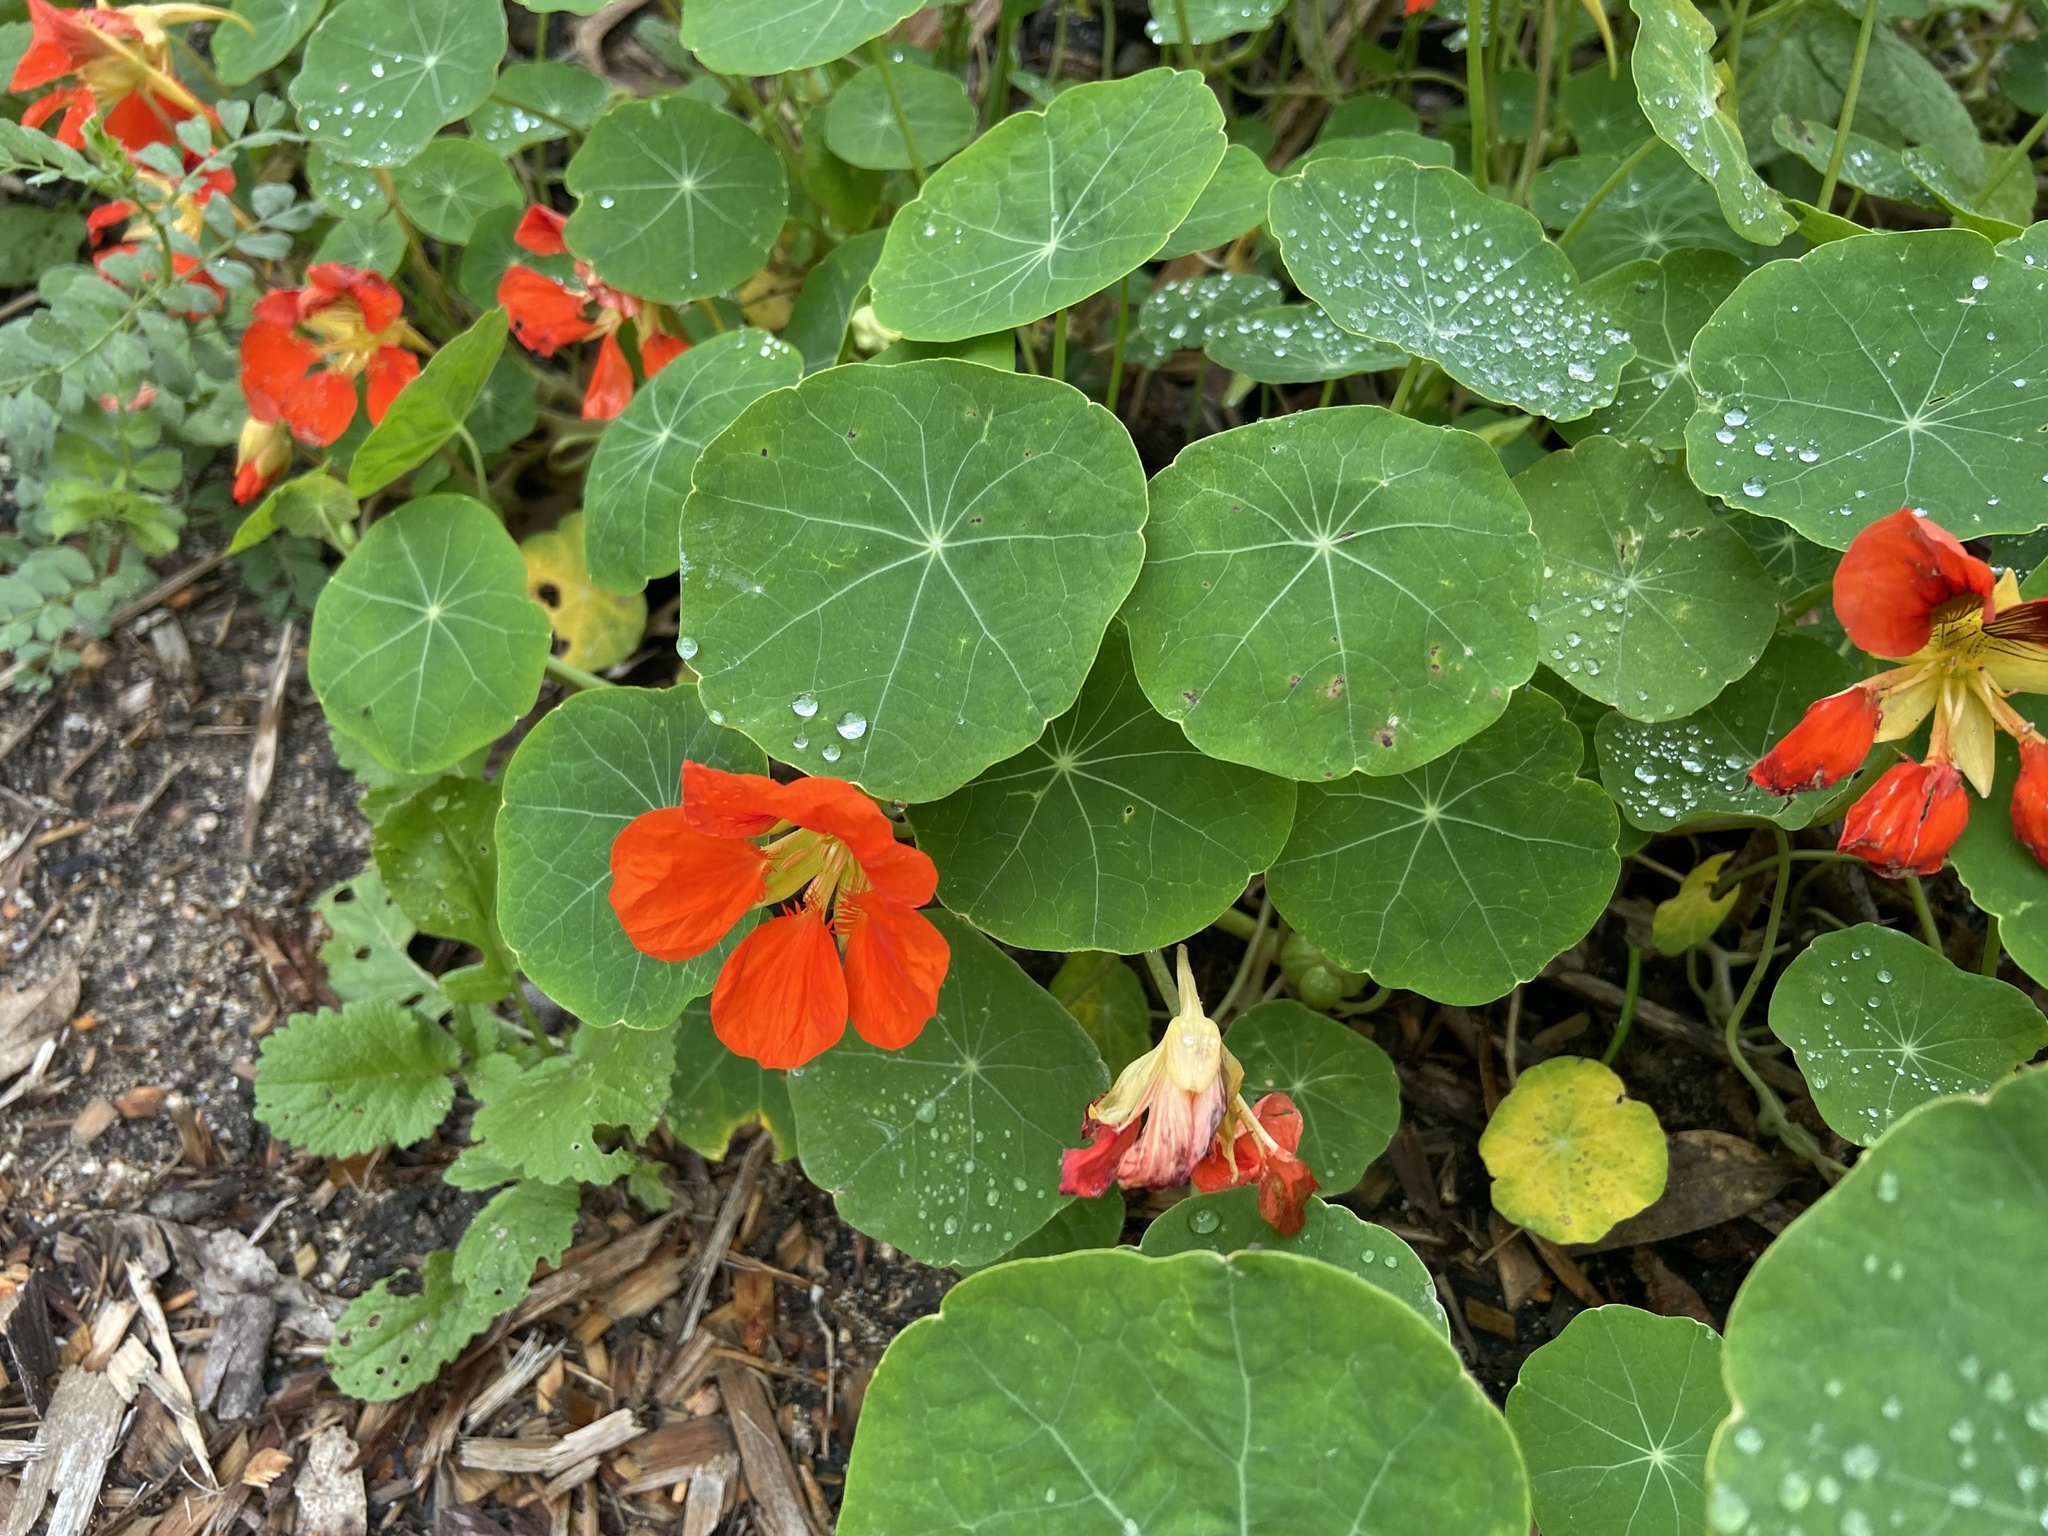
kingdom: Plantae
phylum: Tracheophyta
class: Magnoliopsida
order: Brassicales
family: Tropaeolaceae
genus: Tropaeolum
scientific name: Tropaeolum majus
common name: Nasturtium
